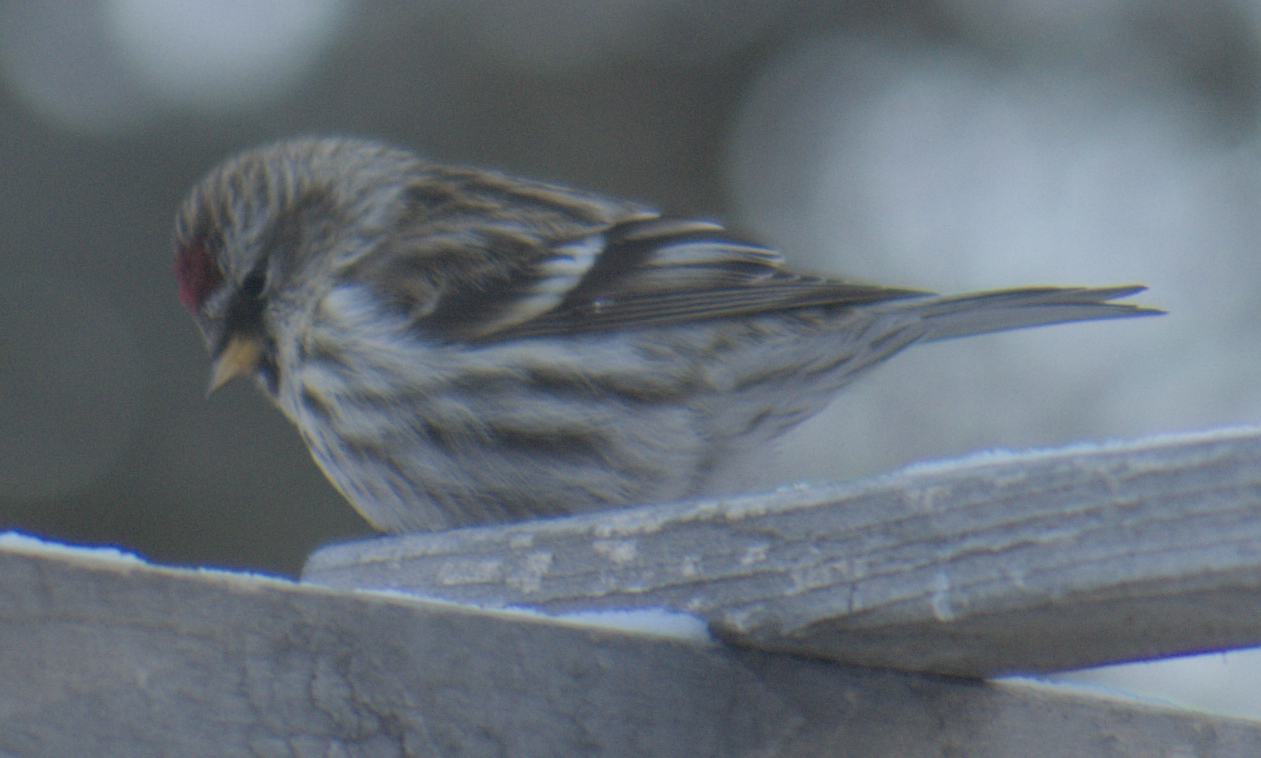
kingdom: Animalia
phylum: Chordata
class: Aves
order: Passeriformes
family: Fringillidae
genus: Acanthis
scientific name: Acanthis flammea
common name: Common redpoll
